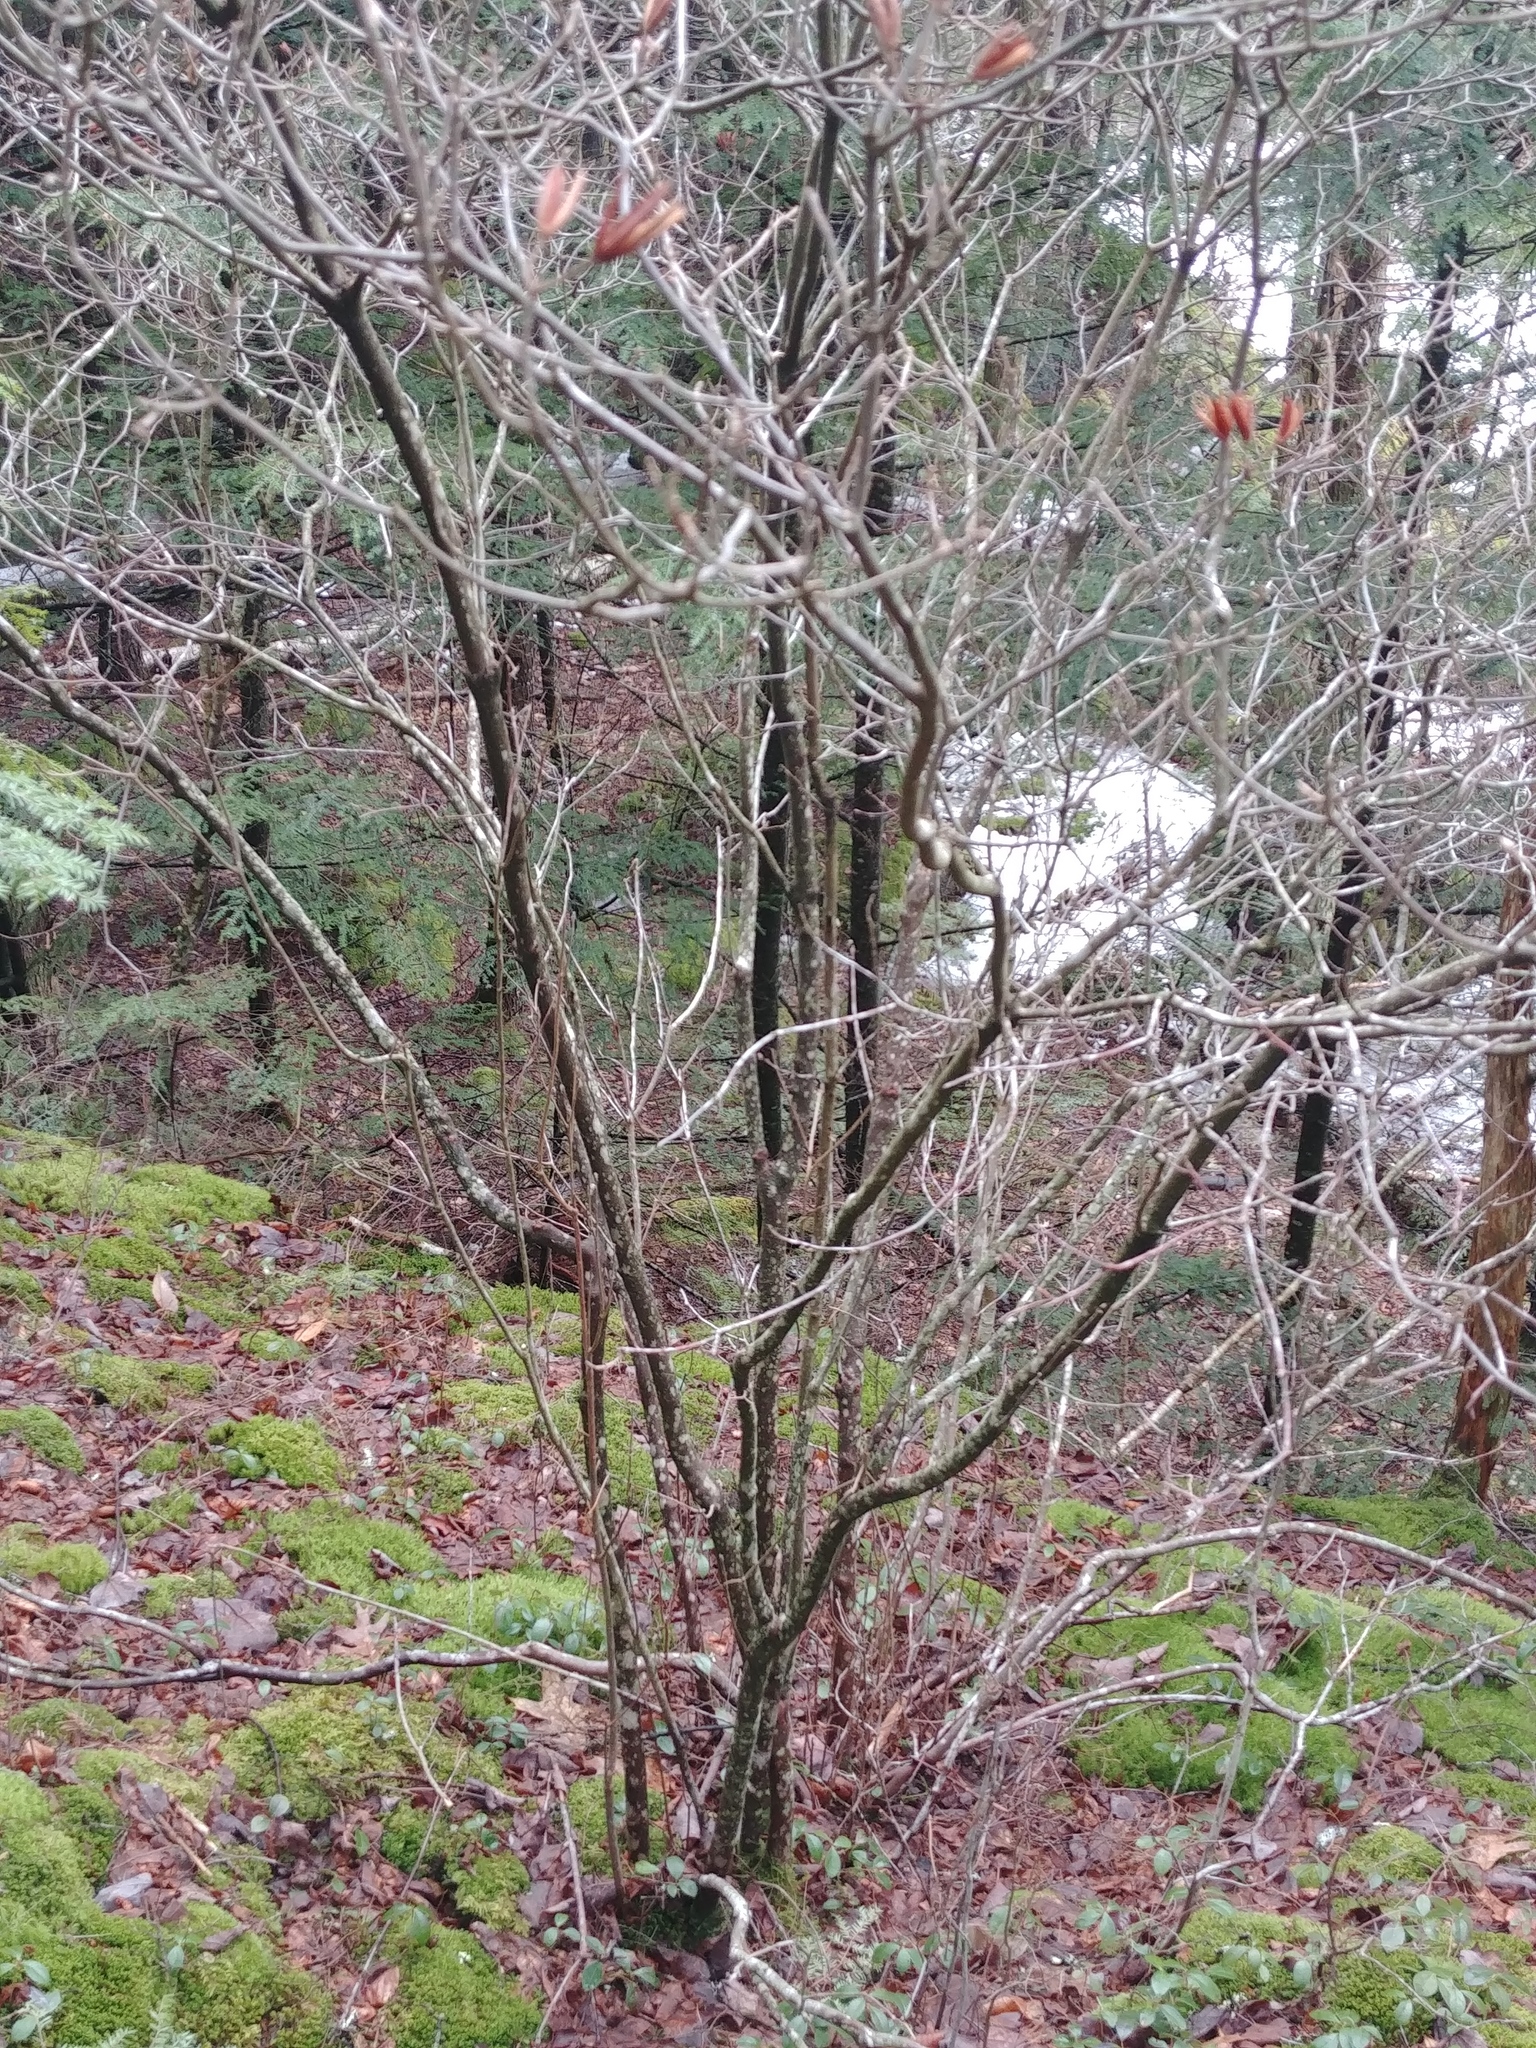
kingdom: Plantae
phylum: Tracheophyta
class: Magnoliopsida
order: Ericales
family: Ericaceae
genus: Rhododendron
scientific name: Rhododendron roseum
